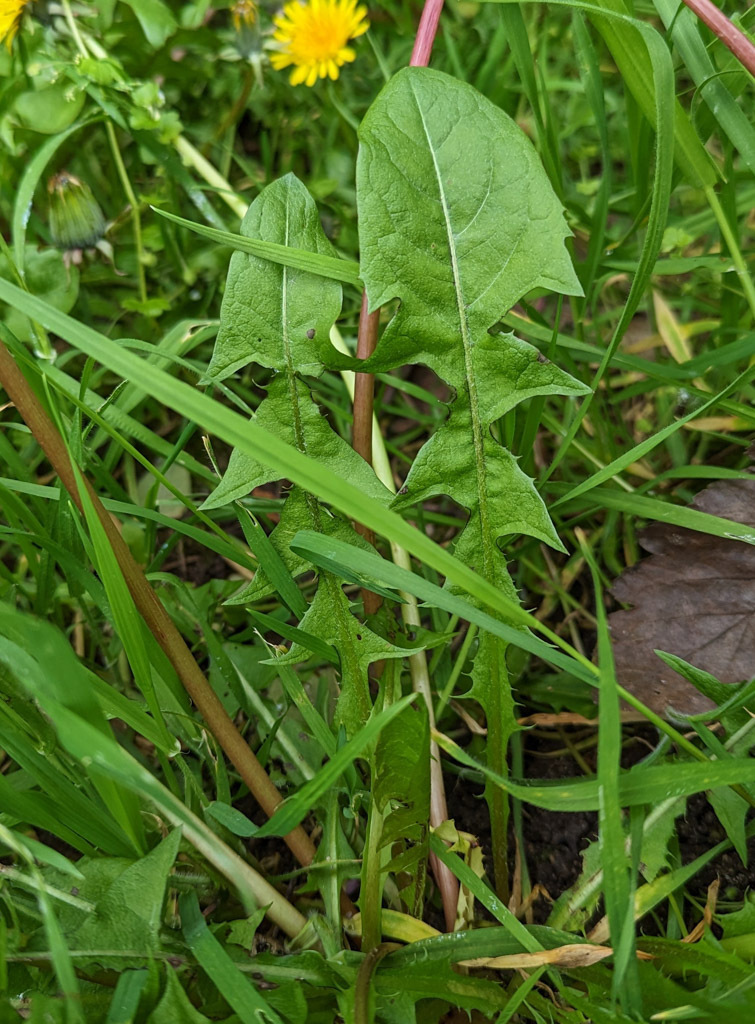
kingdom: Plantae
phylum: Tracheophyta
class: Magnoliopsida
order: Asterales
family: Asteraceae
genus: Taraxacum
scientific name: Taraxacum officinale
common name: Common dandelion
